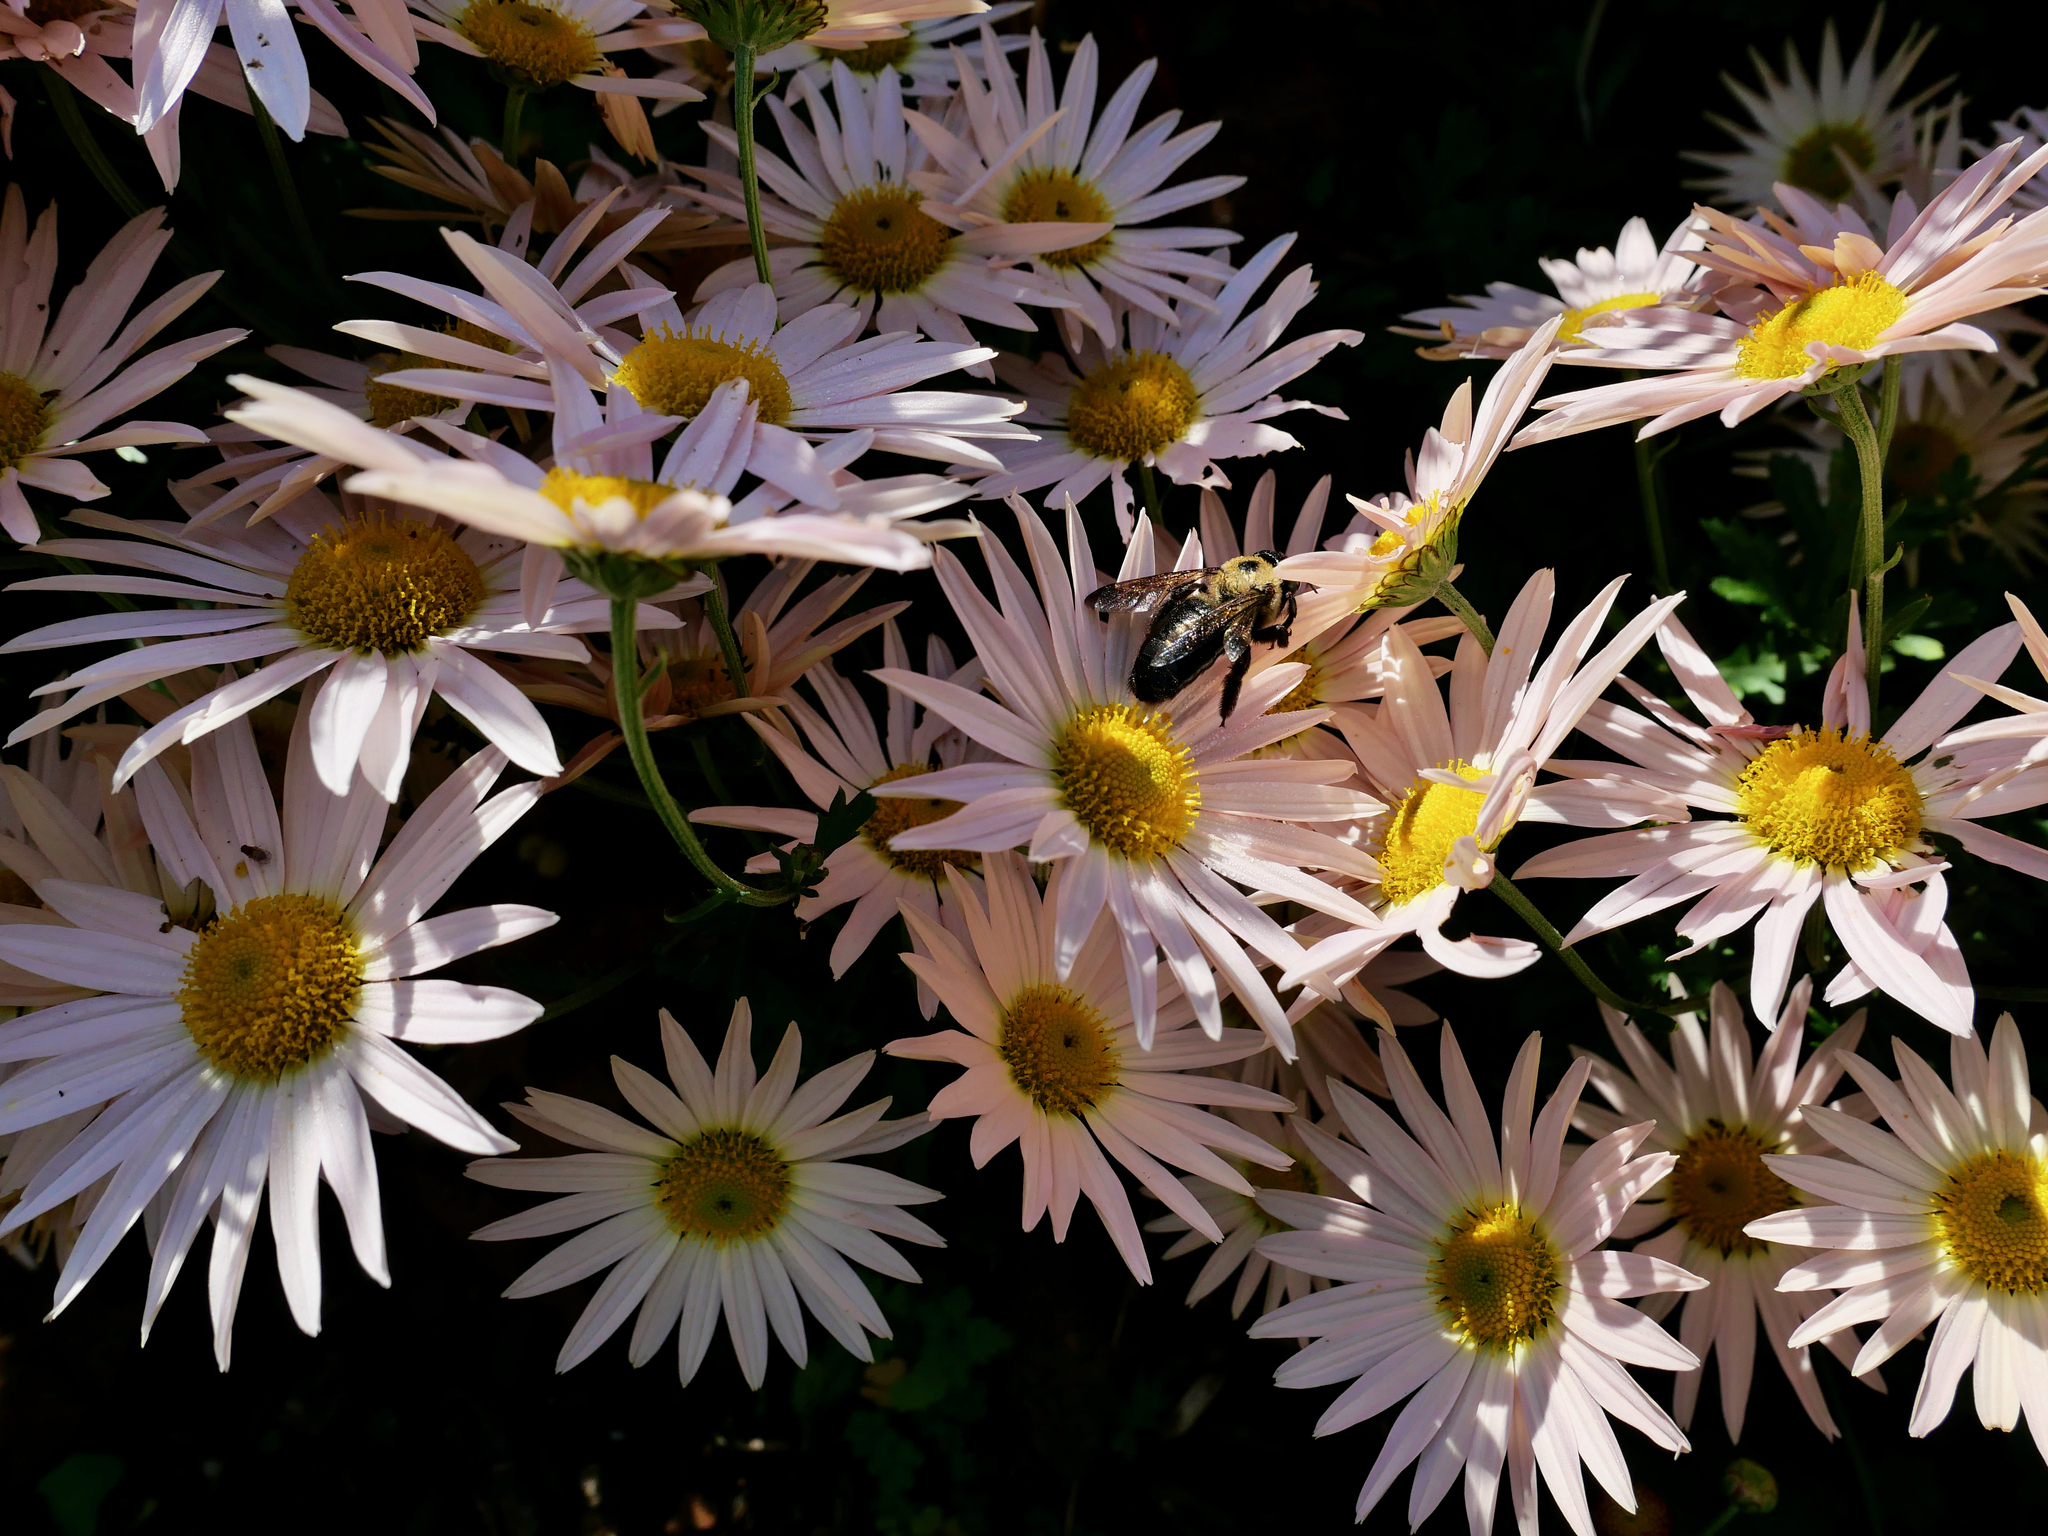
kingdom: Animalia
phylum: Arthropoda
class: Insecta
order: Hymenoptera
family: Apidae
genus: Xylocopa
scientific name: Xylocopa virginica
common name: Carpenter bee
